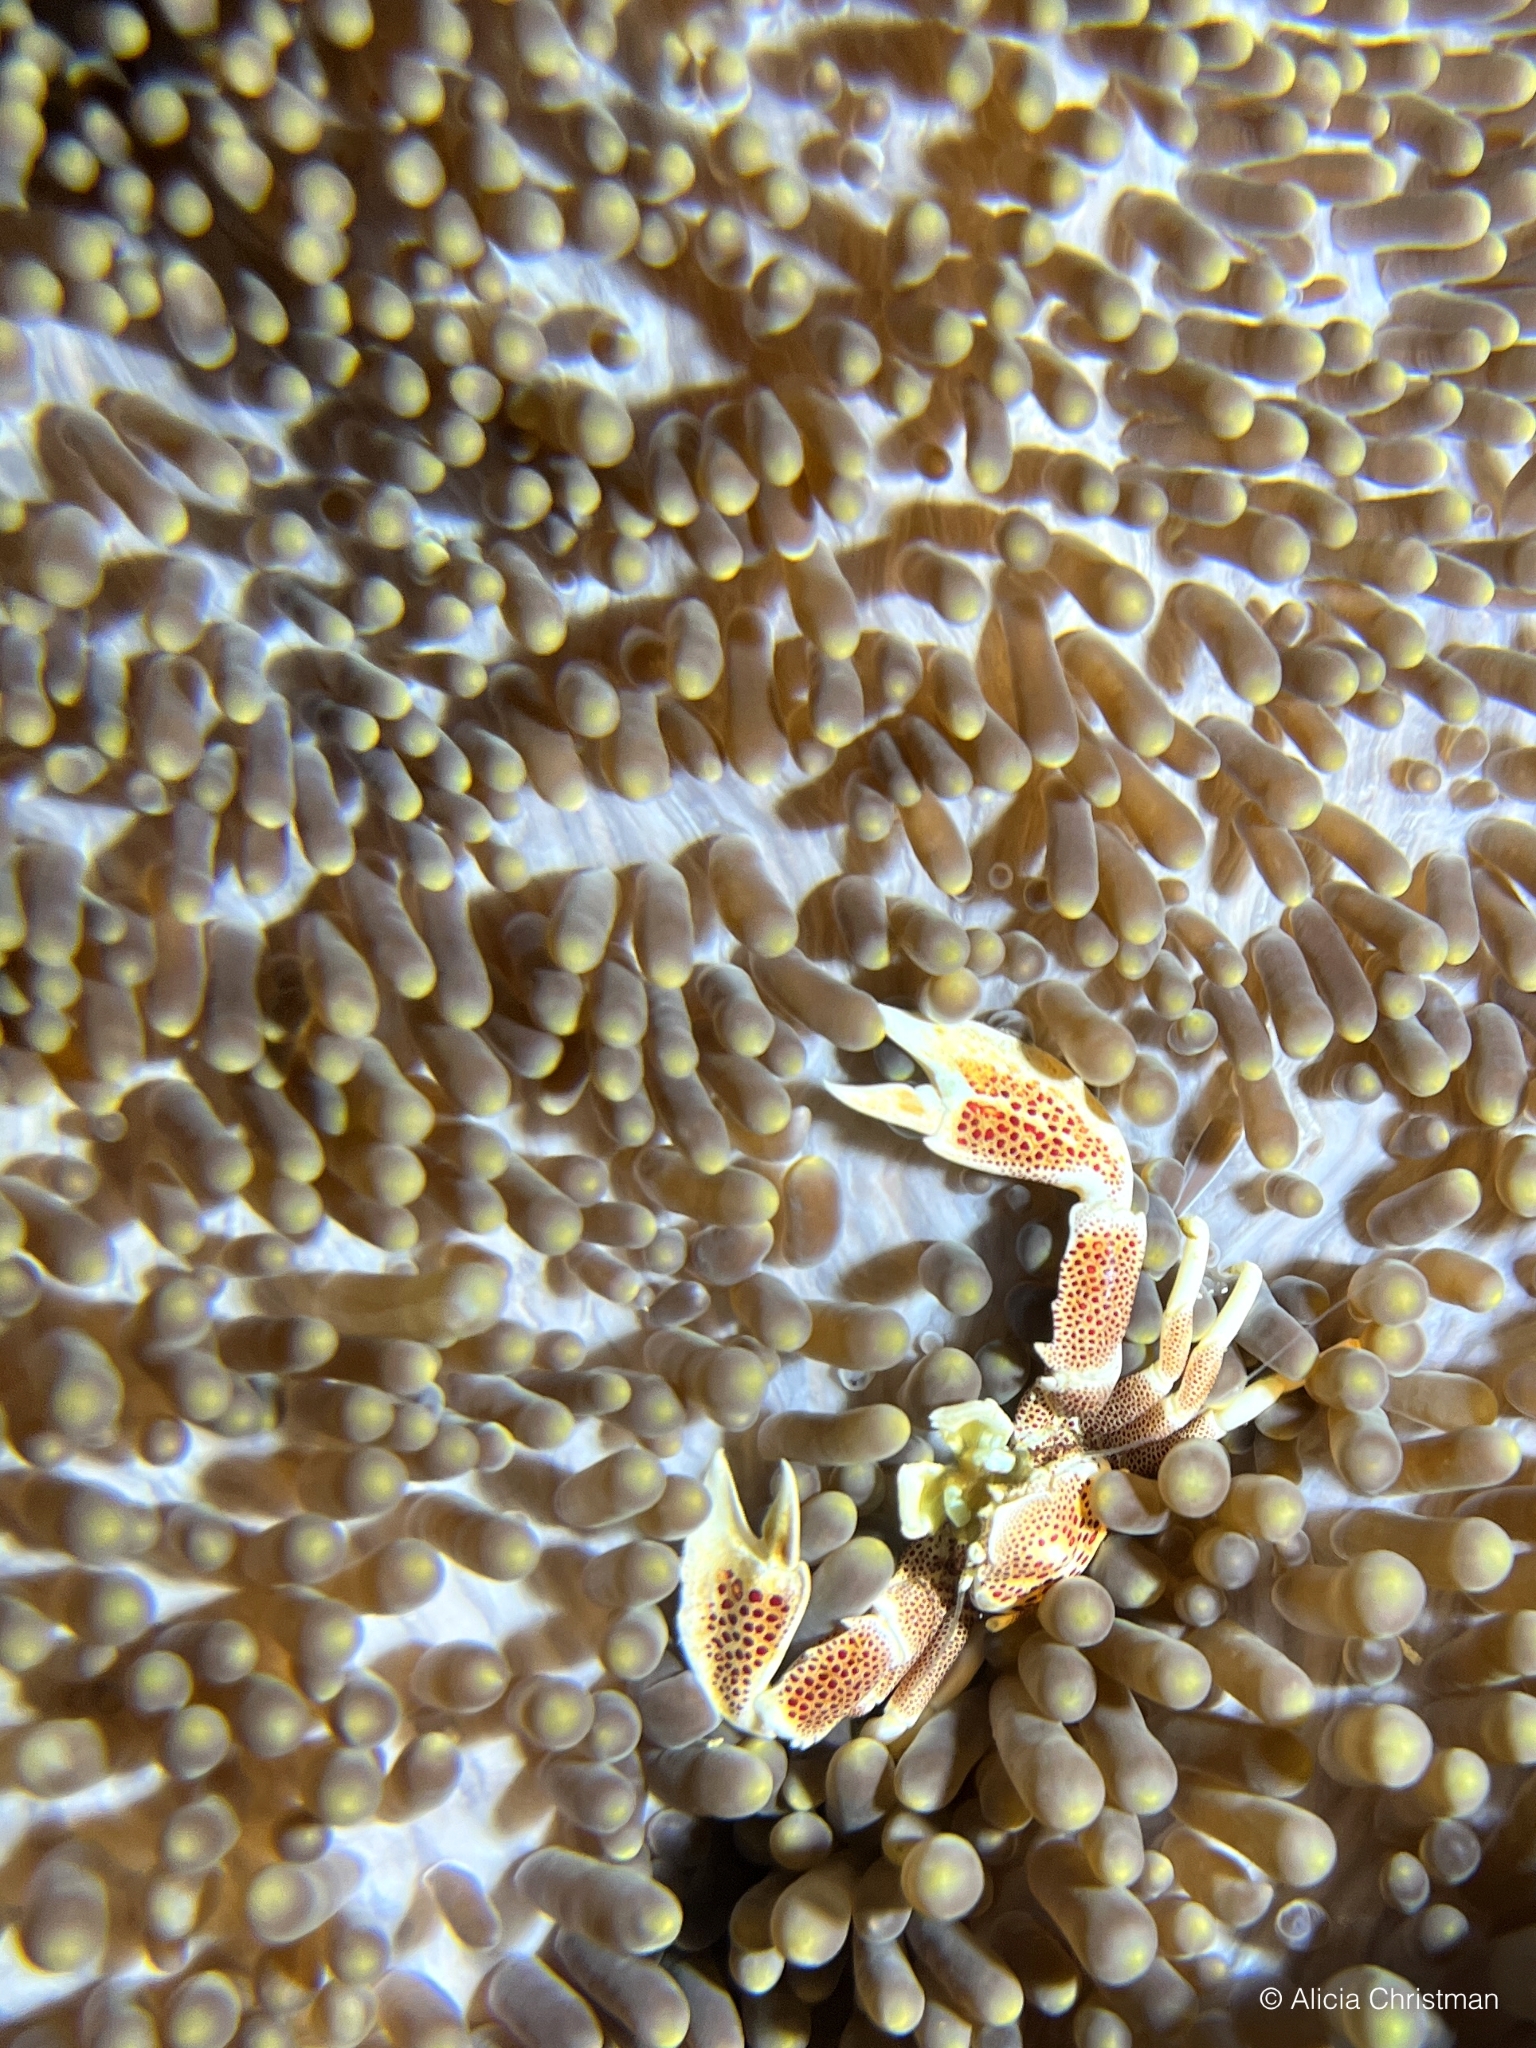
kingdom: Animalia
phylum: Arthropoda
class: Malacostraca
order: Decapoda
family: Porcellanidae
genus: Neopetrolisthes
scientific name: Neopetrolisthes maculatus
